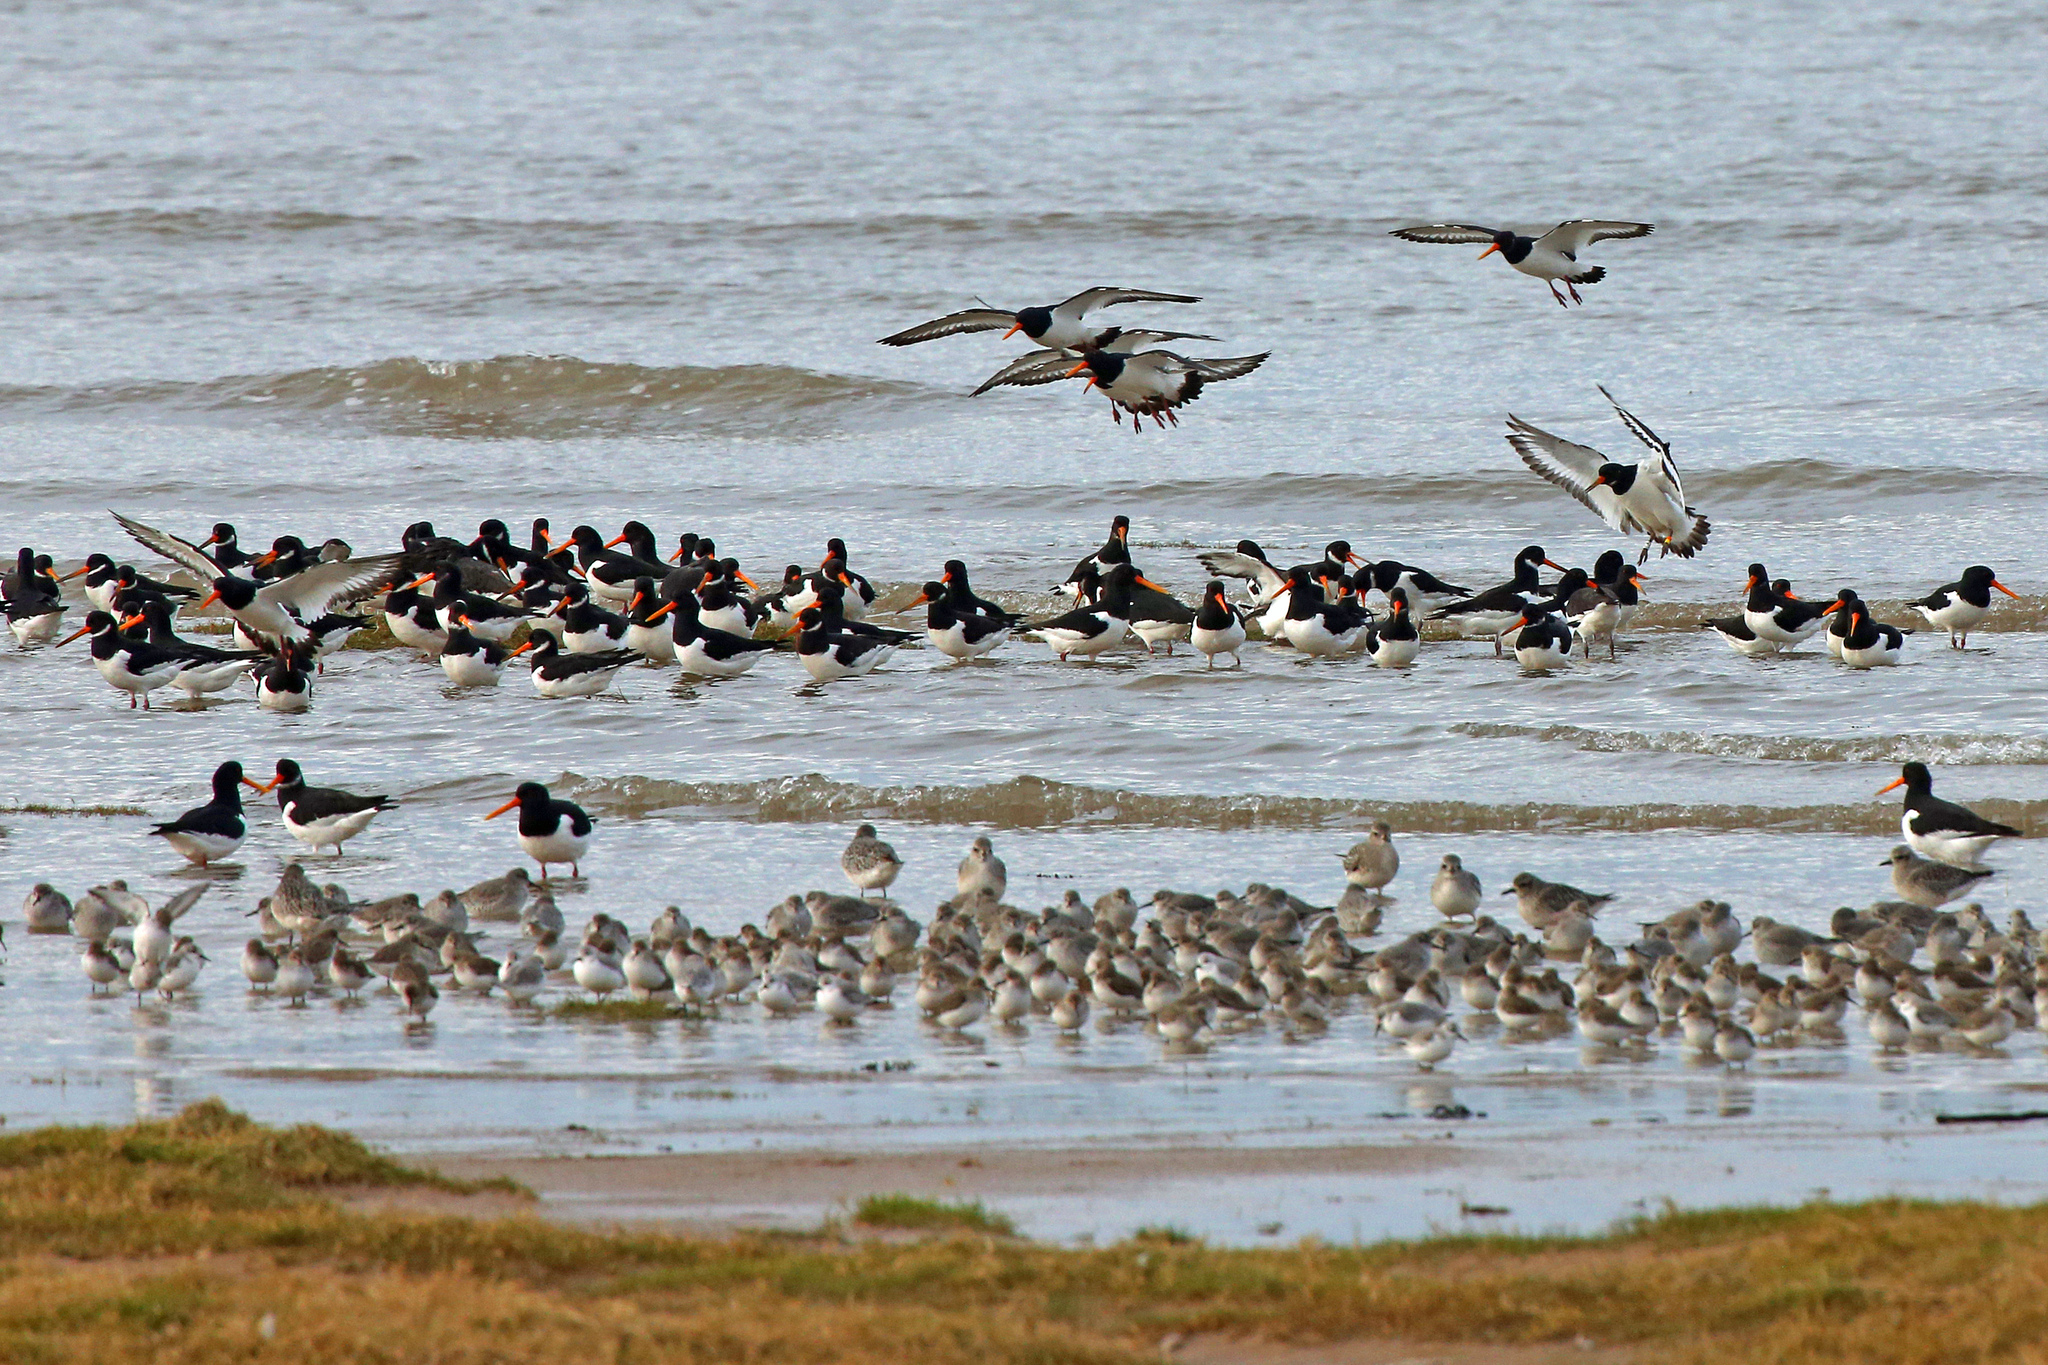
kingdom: Animalia
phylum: Chordata
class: Aves
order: Charadriiformes
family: Haematopodidae
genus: Haematopus
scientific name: Haematopus ostralegus
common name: Eurasian oystercatcher
